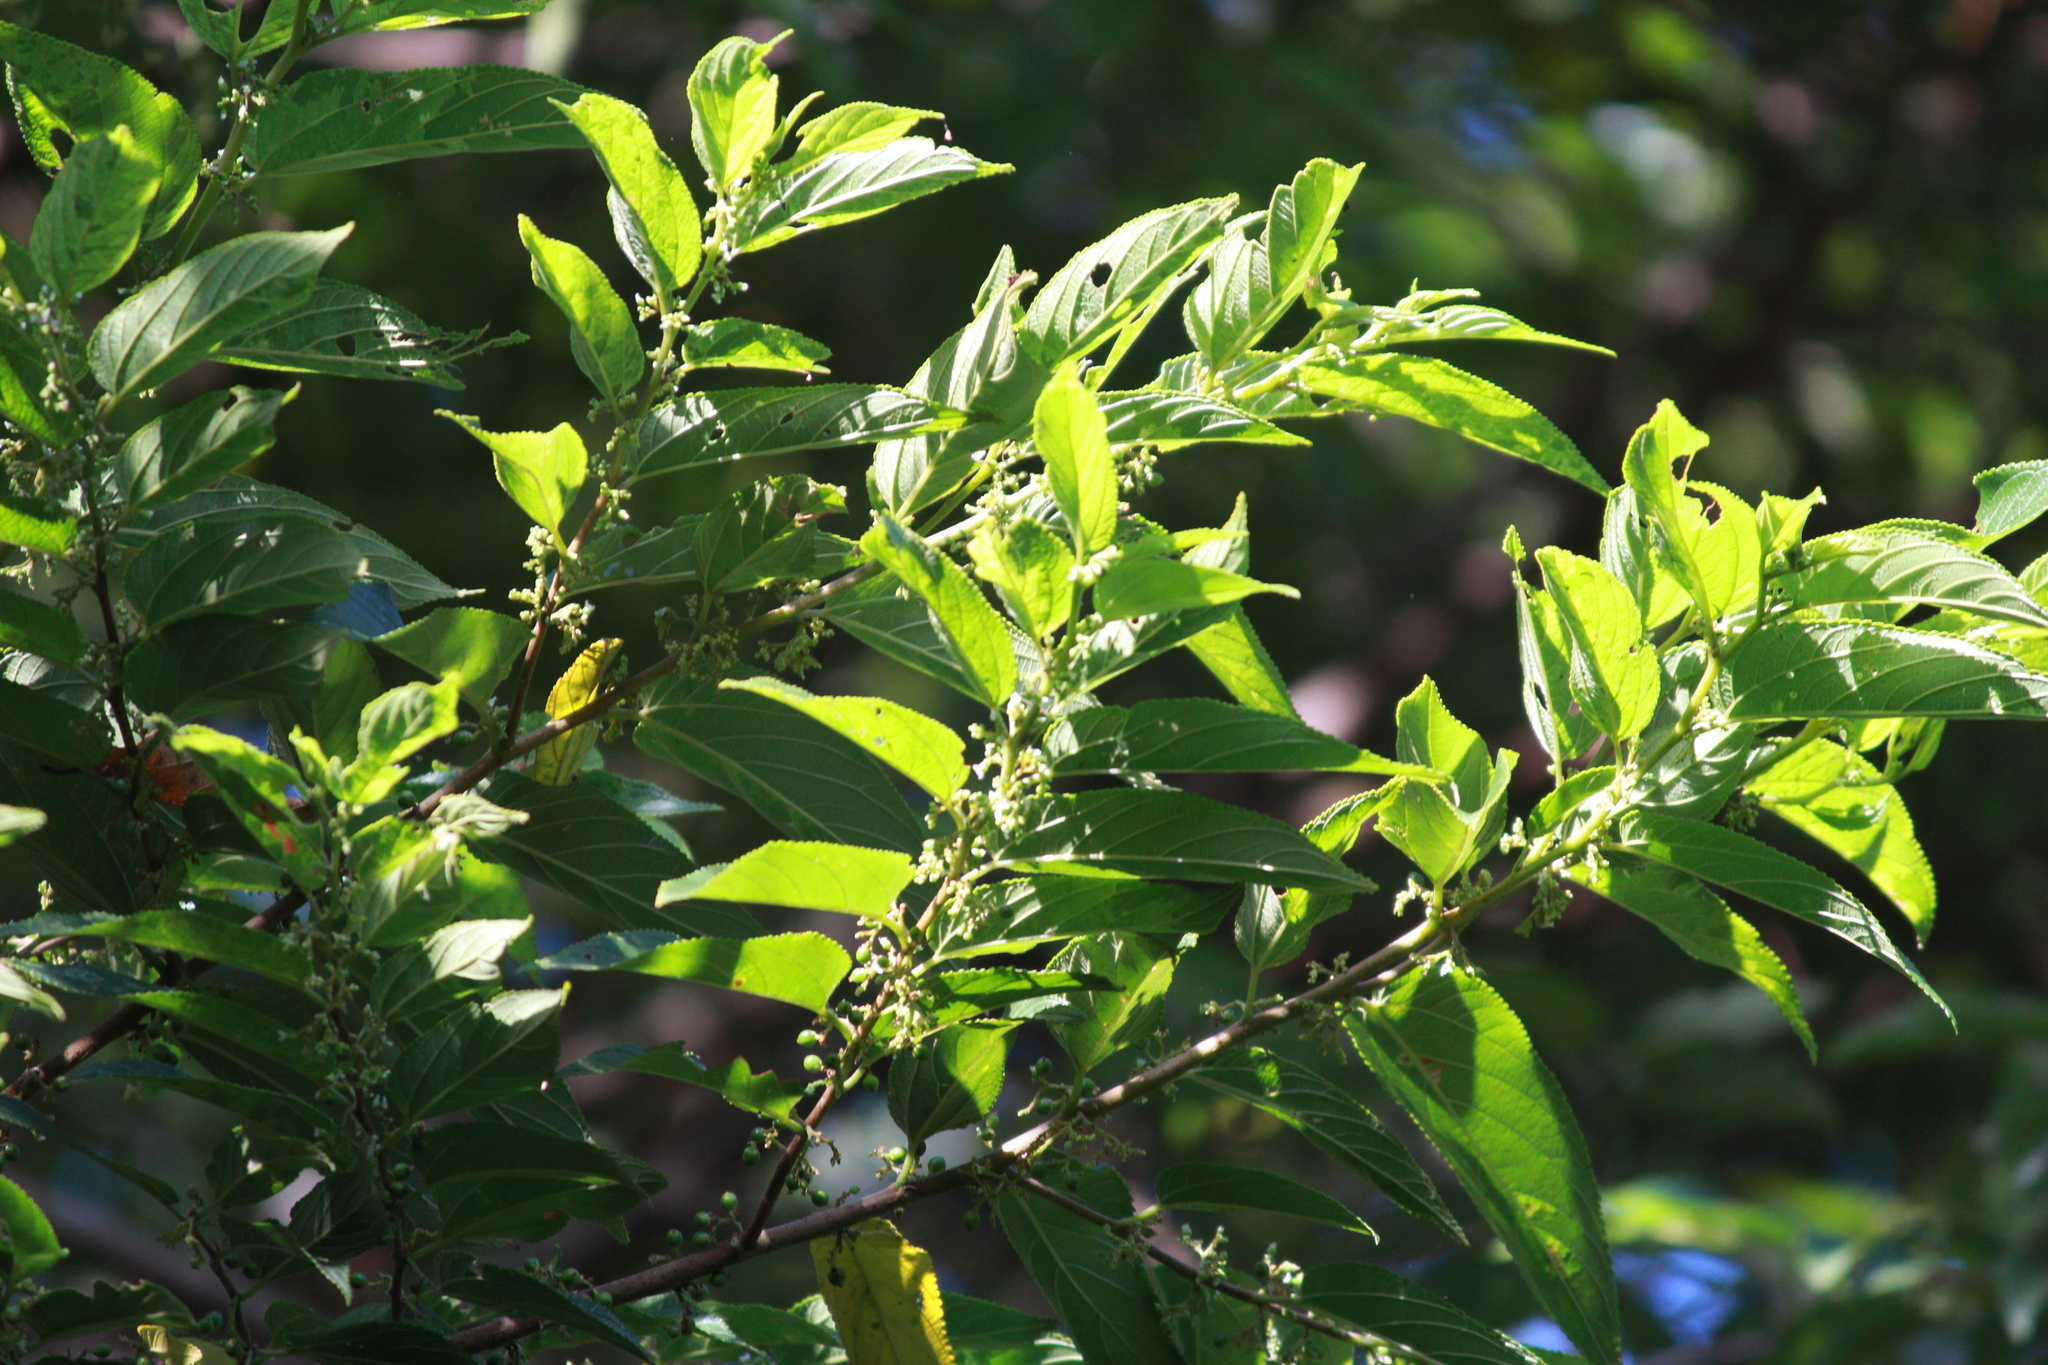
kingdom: Plantae
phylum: Tracheophyta
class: Magnoliopsida
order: Rosales
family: Cannabaceae
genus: Trema
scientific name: Trema orientale
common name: Indian charcoal tree
